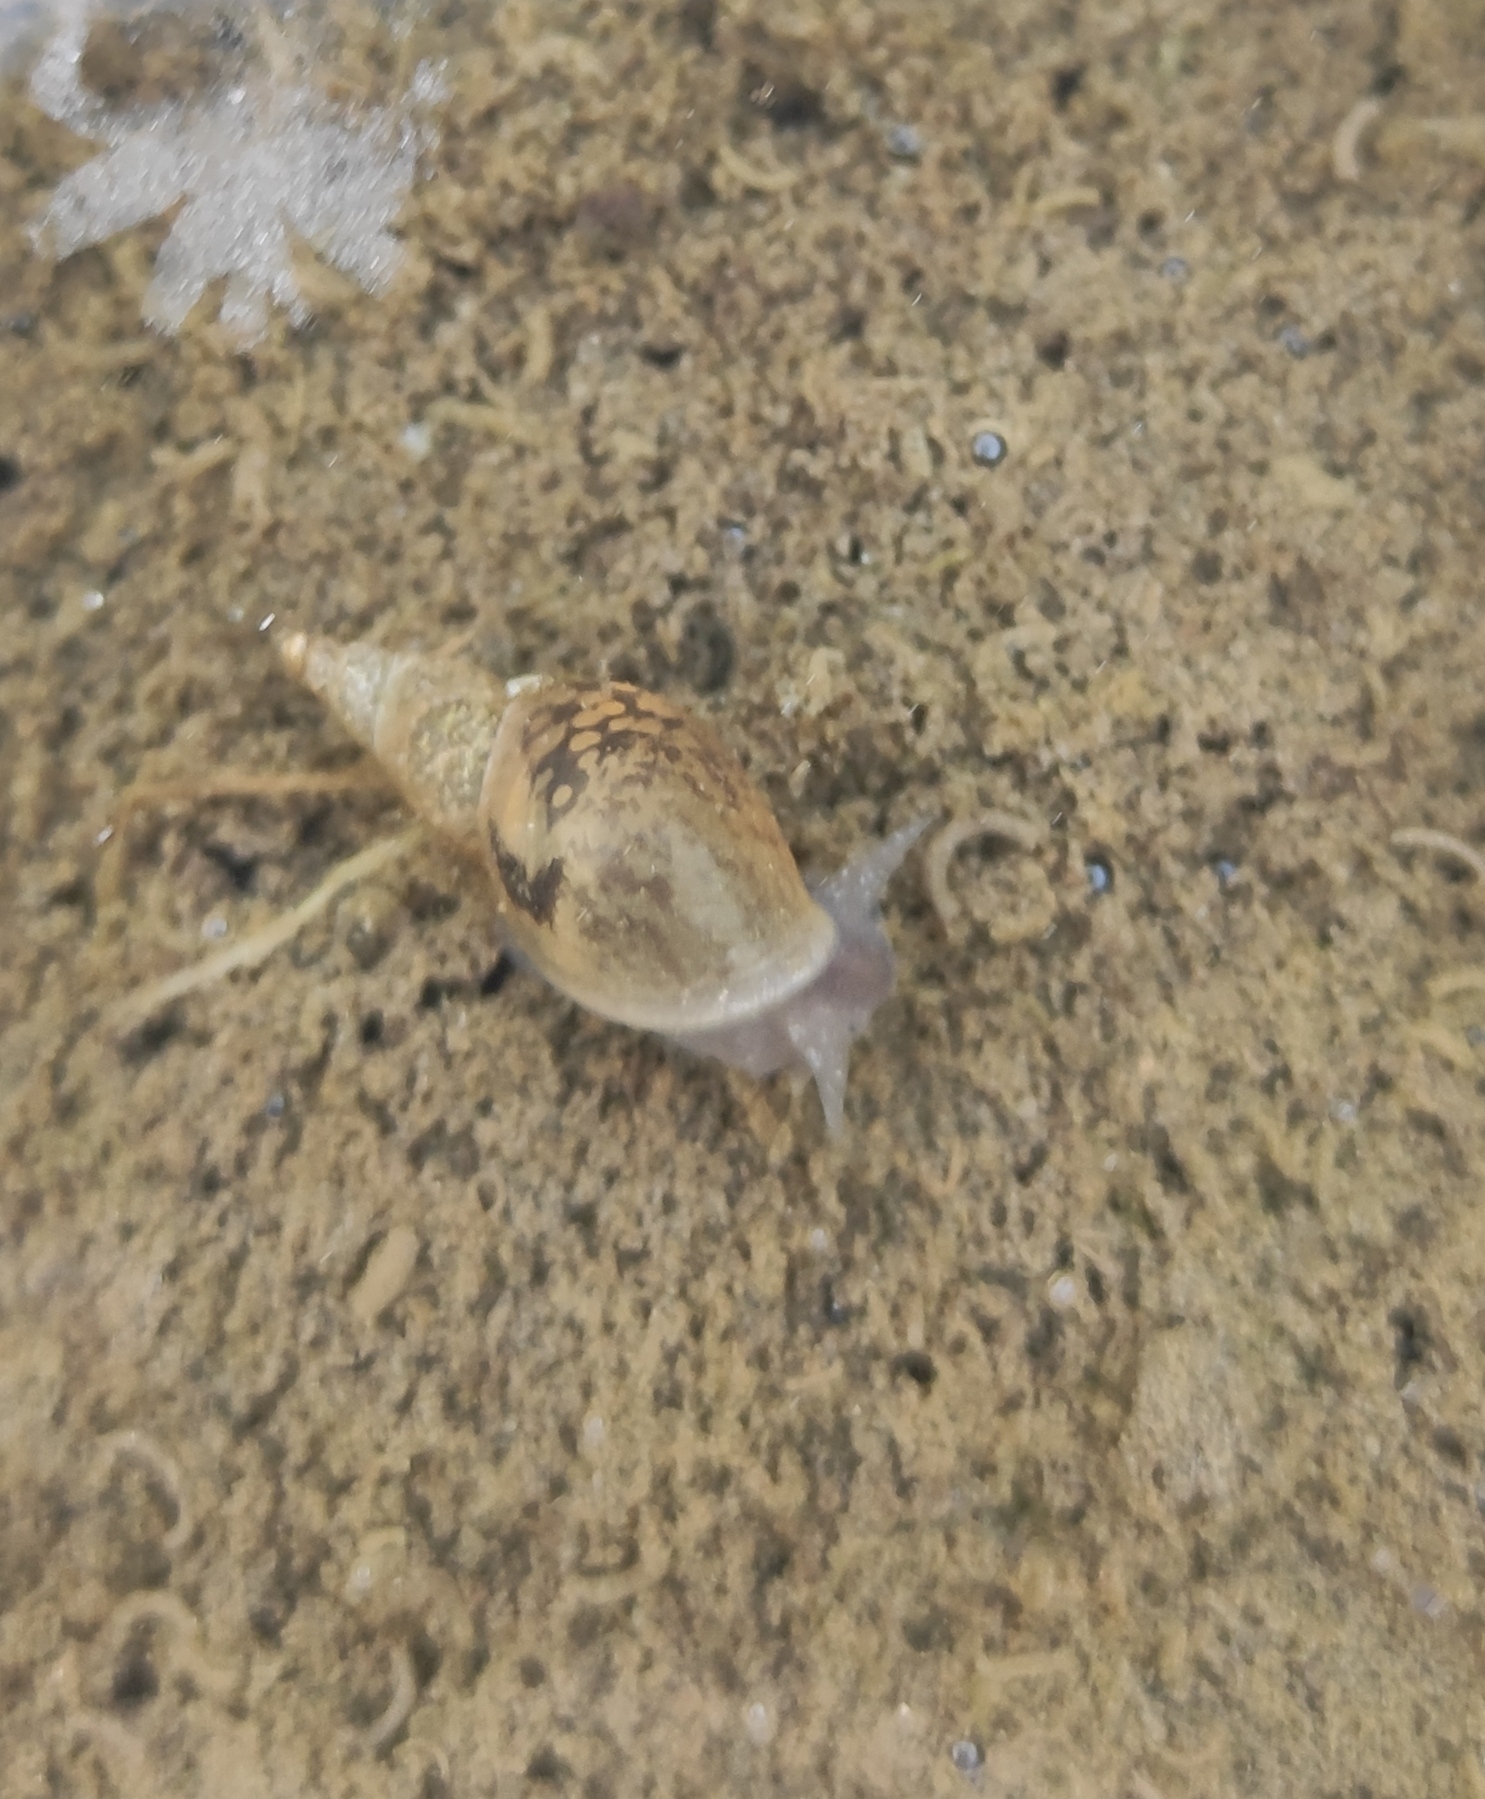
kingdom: Animalia
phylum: Mollusca
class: Gastropoda
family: Lymnaeidae
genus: Lymnaea
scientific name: Lymnaea stagnalis
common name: Great pond snail
